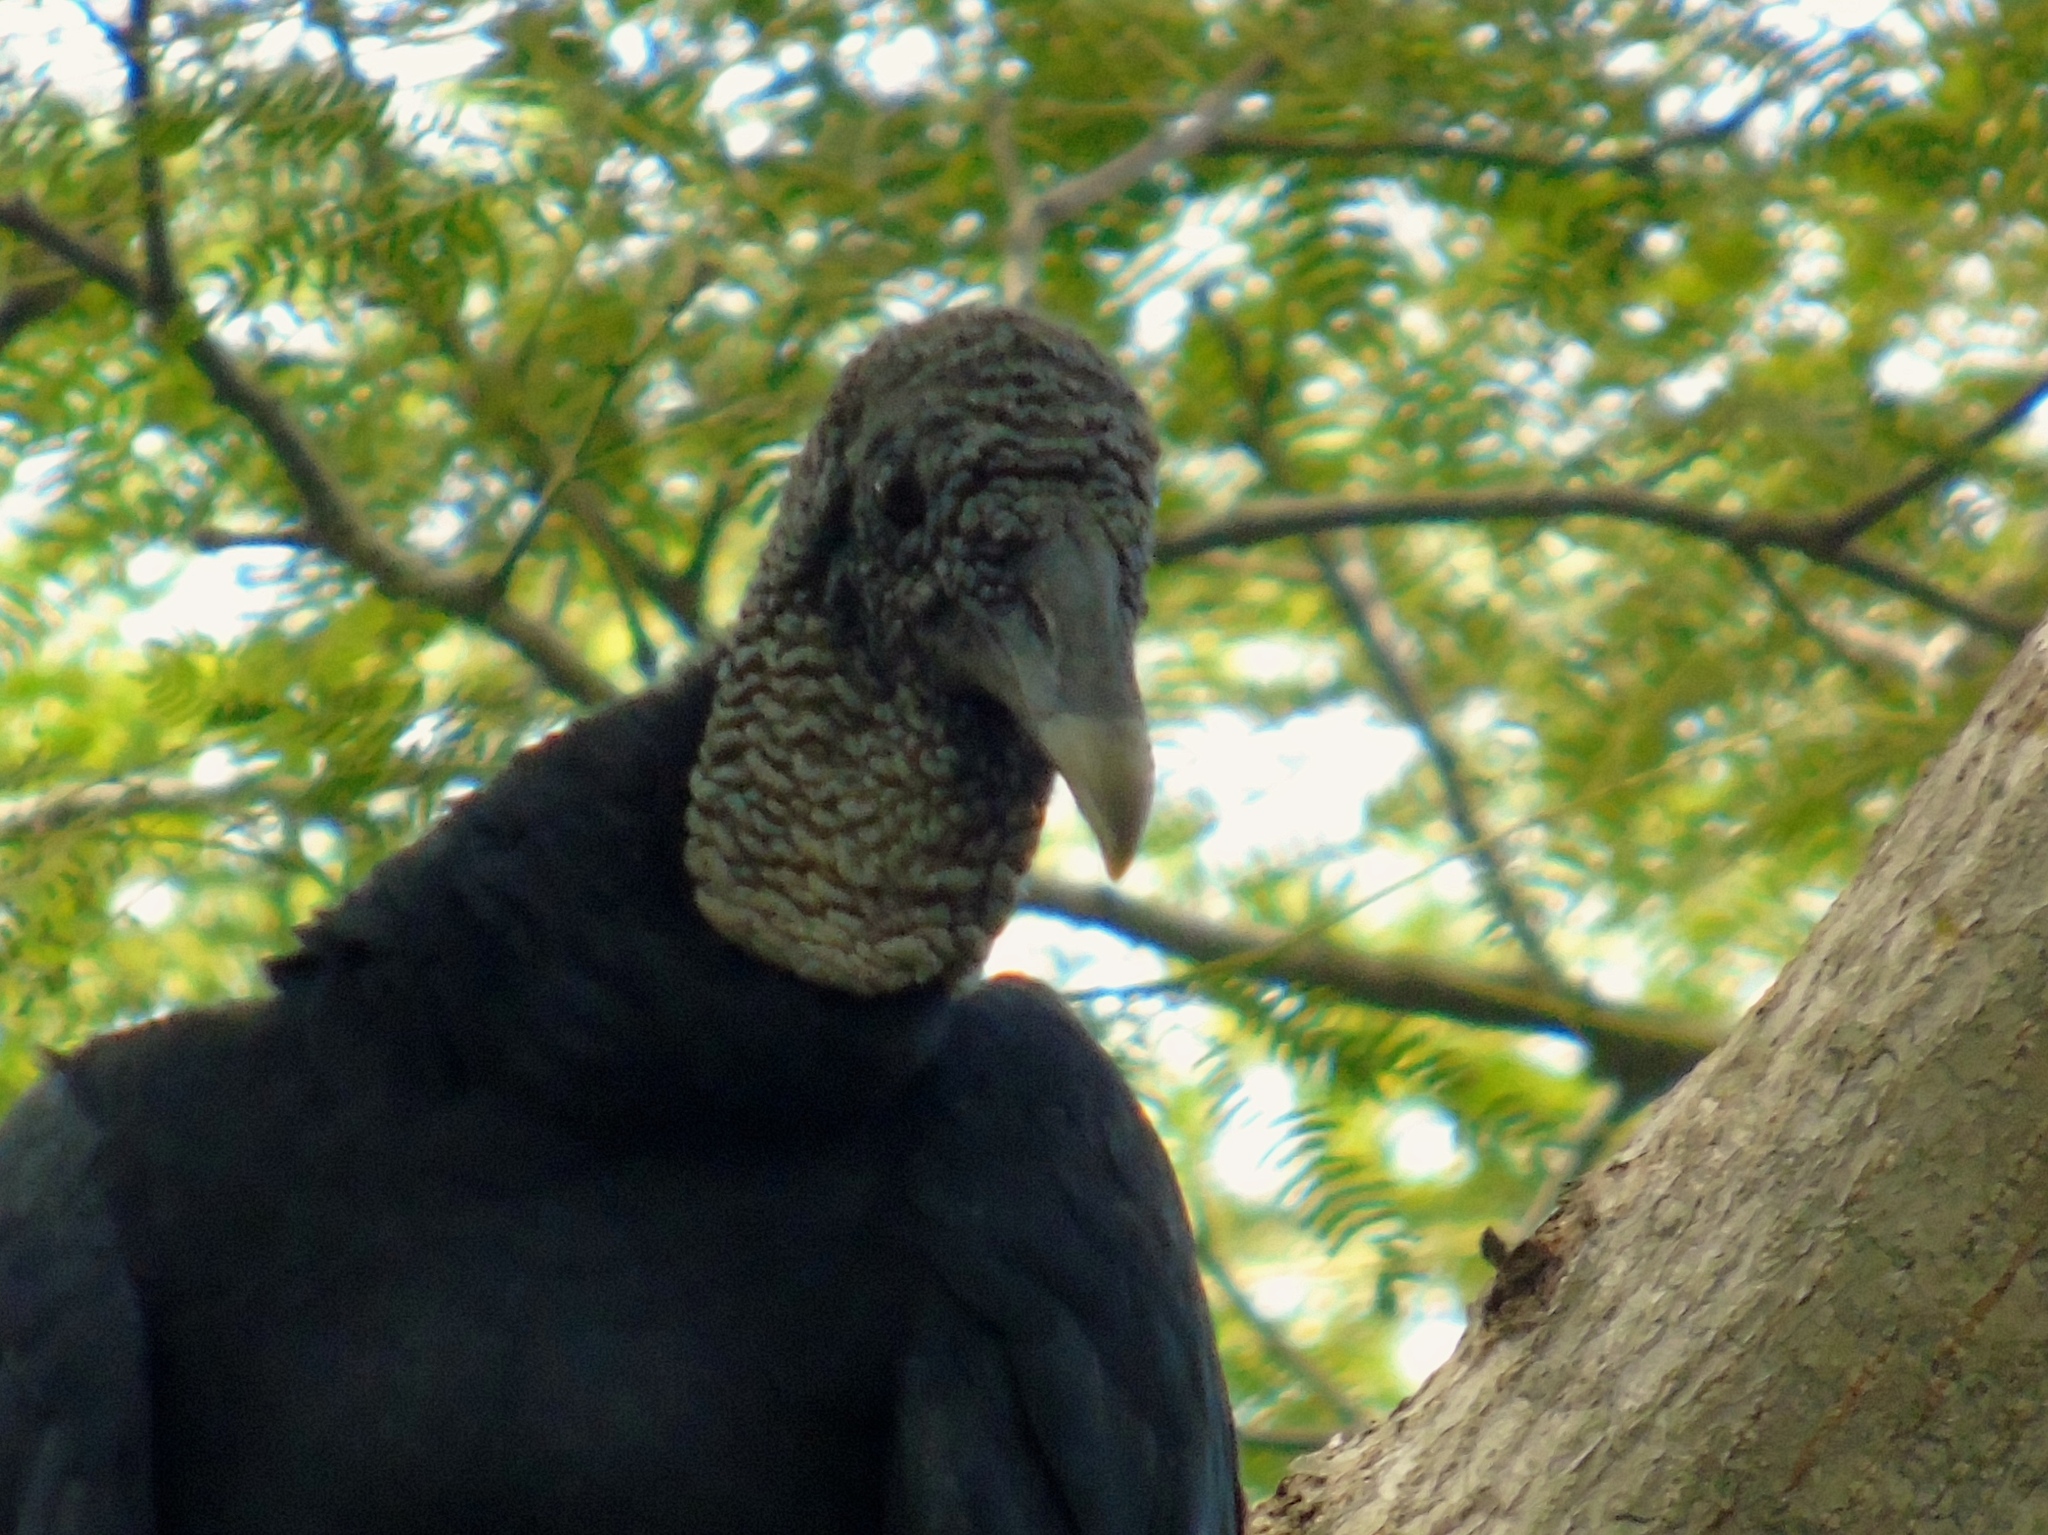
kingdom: Animalia
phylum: Chordata
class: Aves
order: Accipitriformes
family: Cathartidae
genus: Coragyps
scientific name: Coragyps atratus
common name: Black vulture
